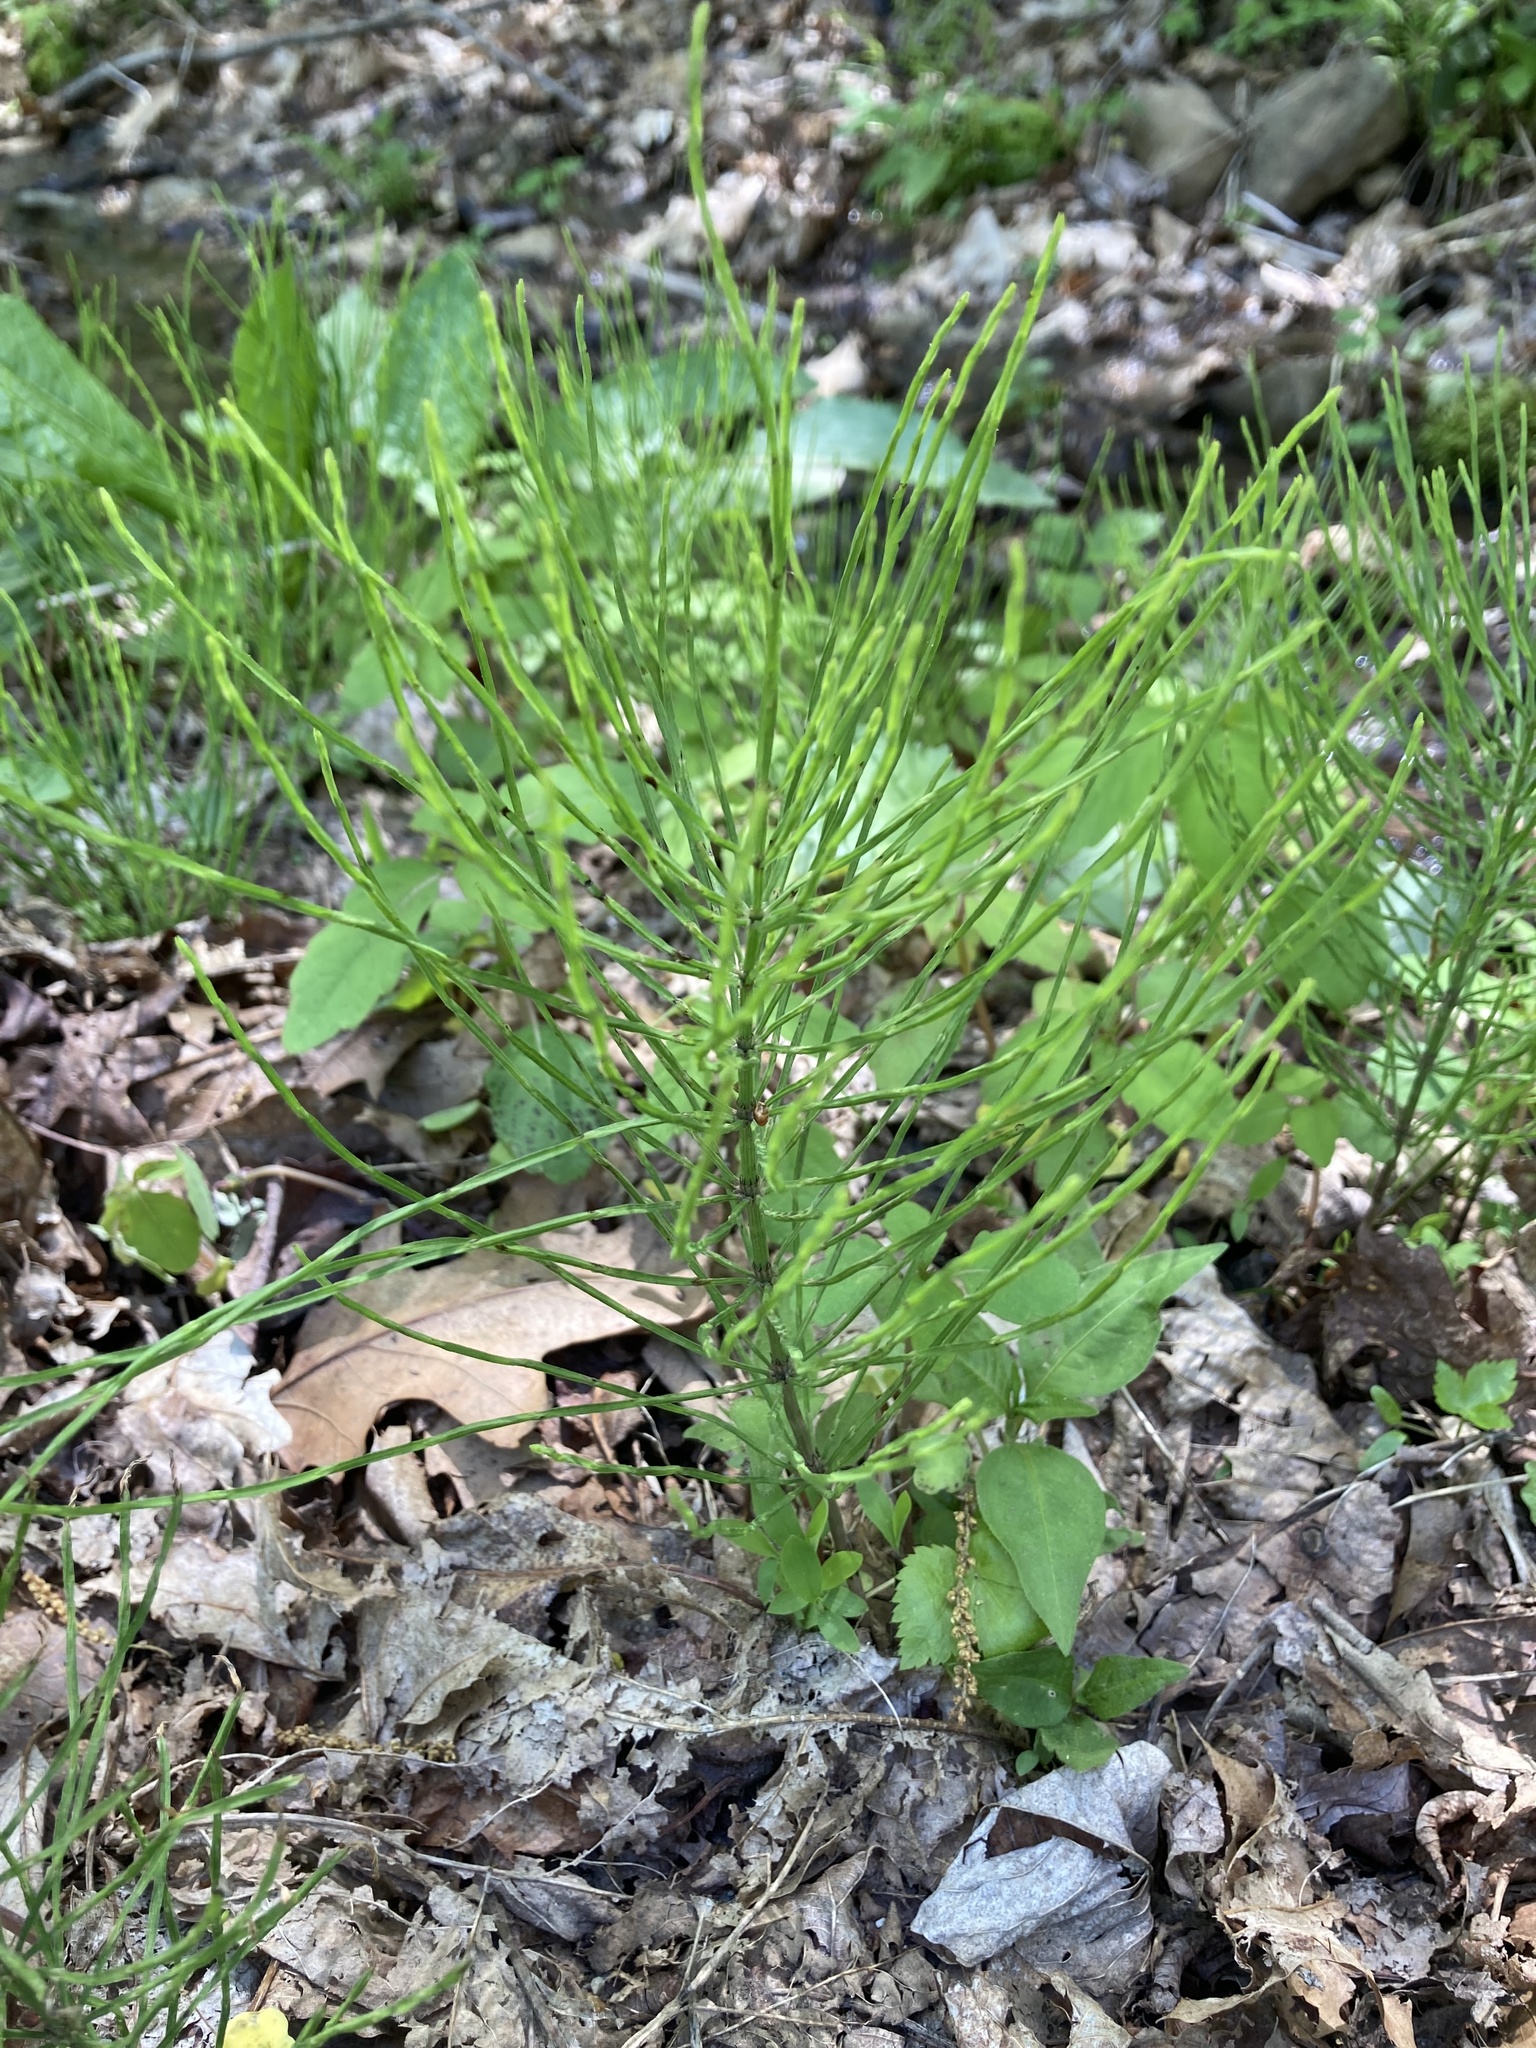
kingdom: Plantae
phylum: Tracheophyta
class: Polypodiopsida
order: Equisetales
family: Equisetaceae
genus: Equisetum
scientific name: Equisetum arvense
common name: Field horsetail
